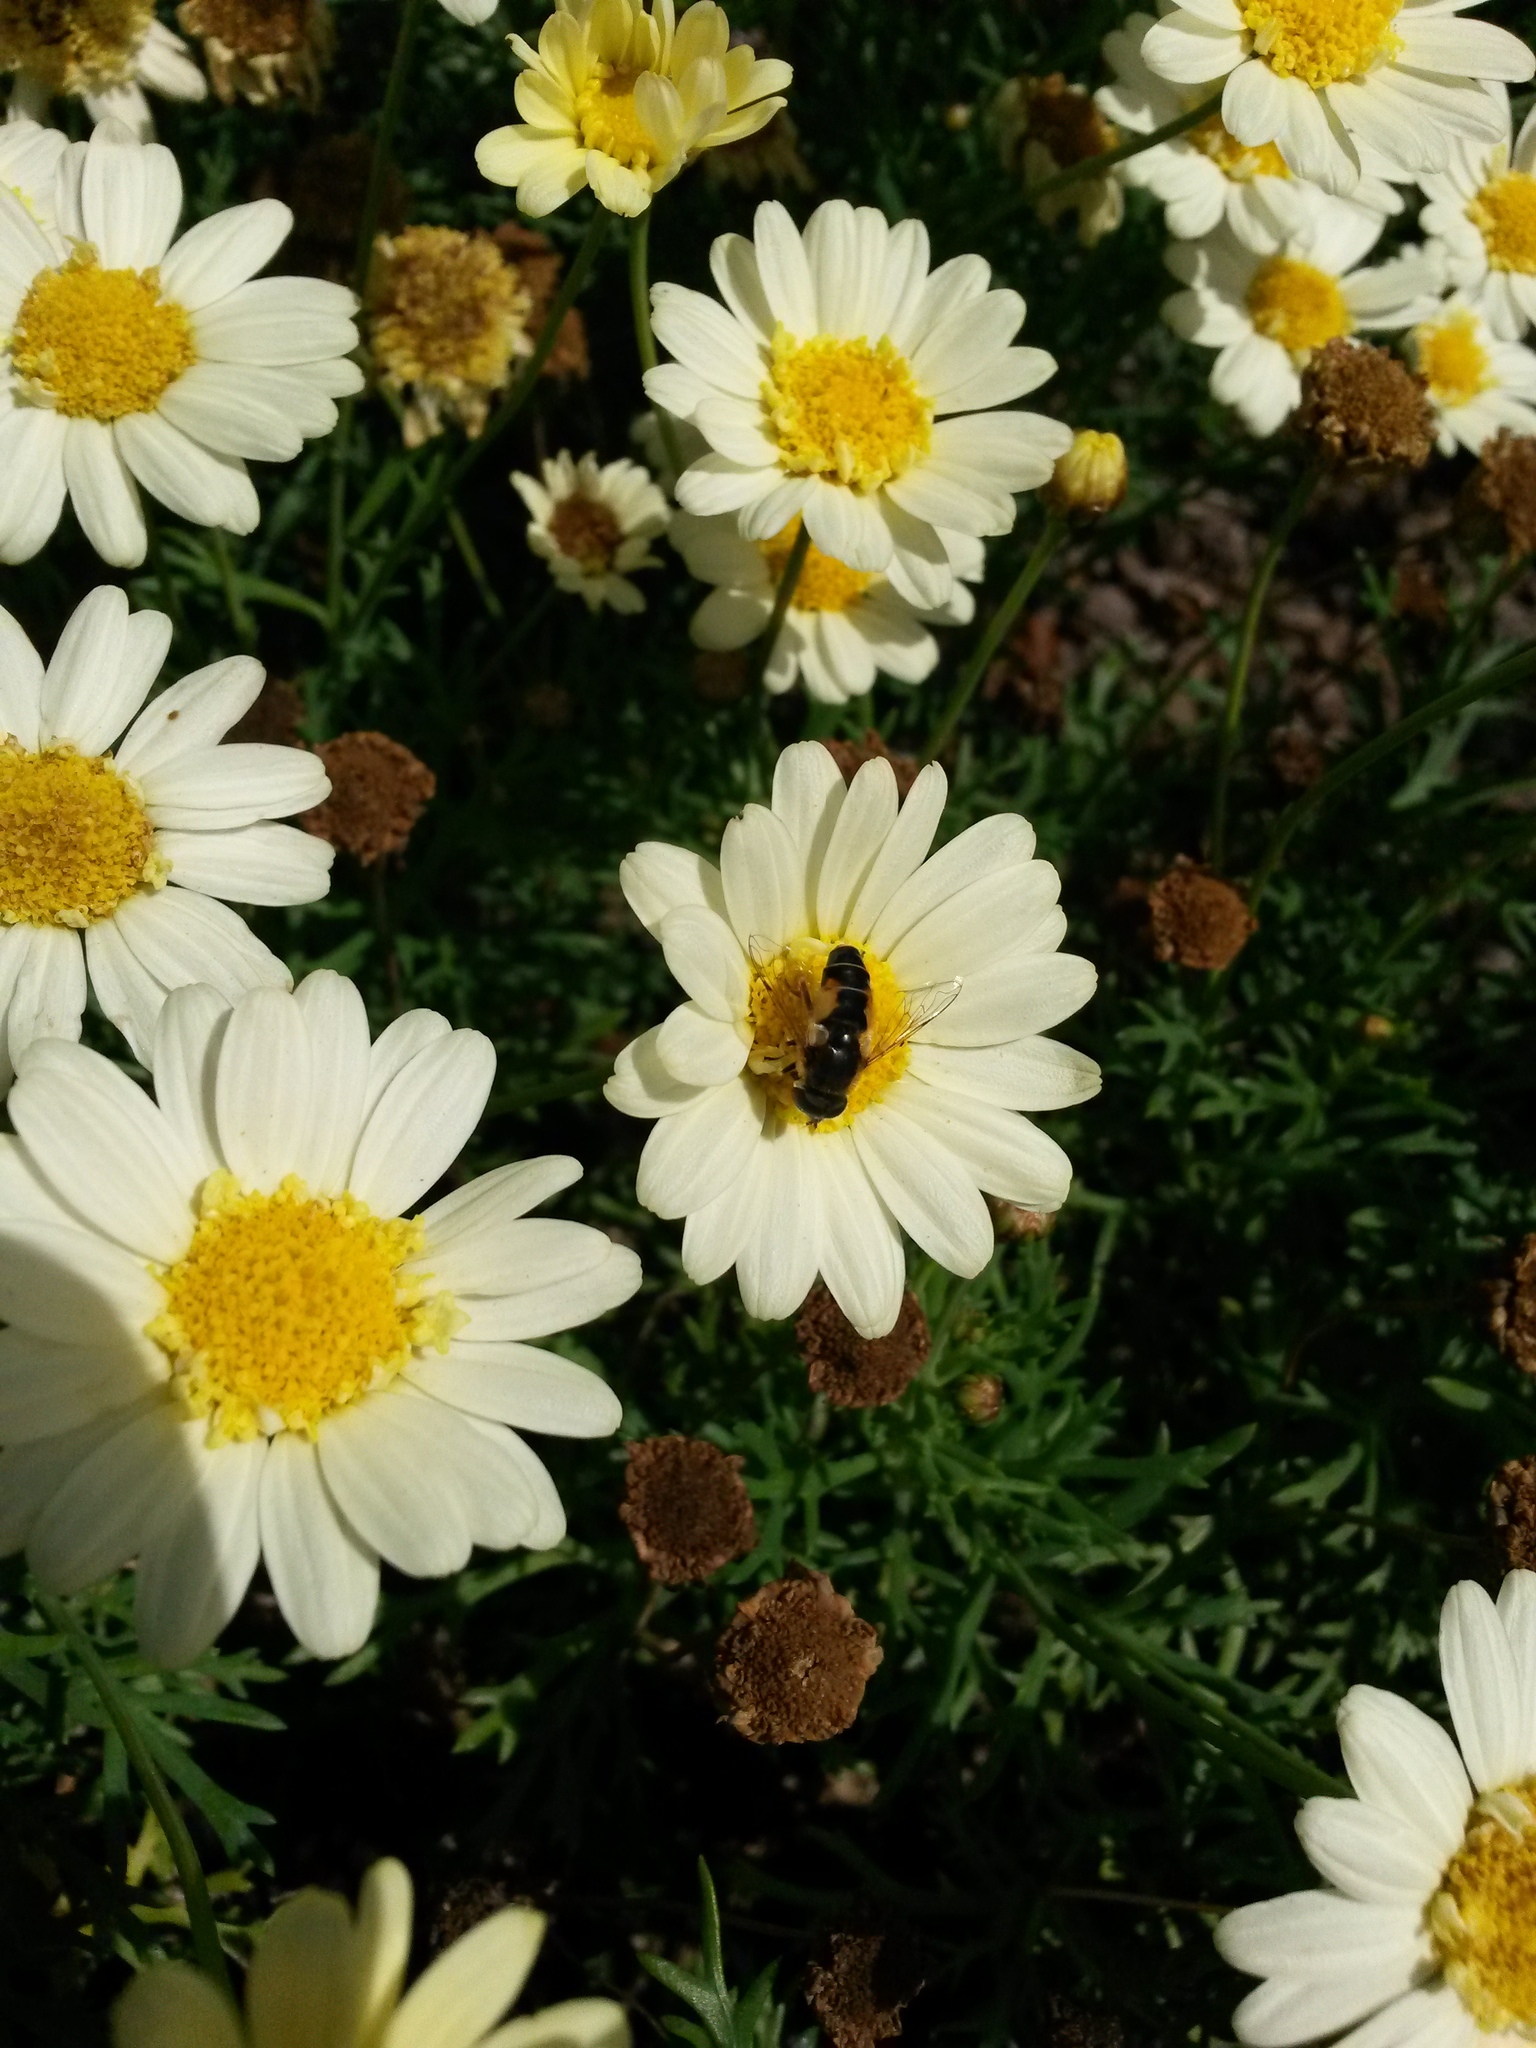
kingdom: Animalia
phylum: Arthropoda
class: Insecta
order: Diptera
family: Syrphidae
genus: Eristalis
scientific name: Eristalis arbustorum
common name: Hover fly
